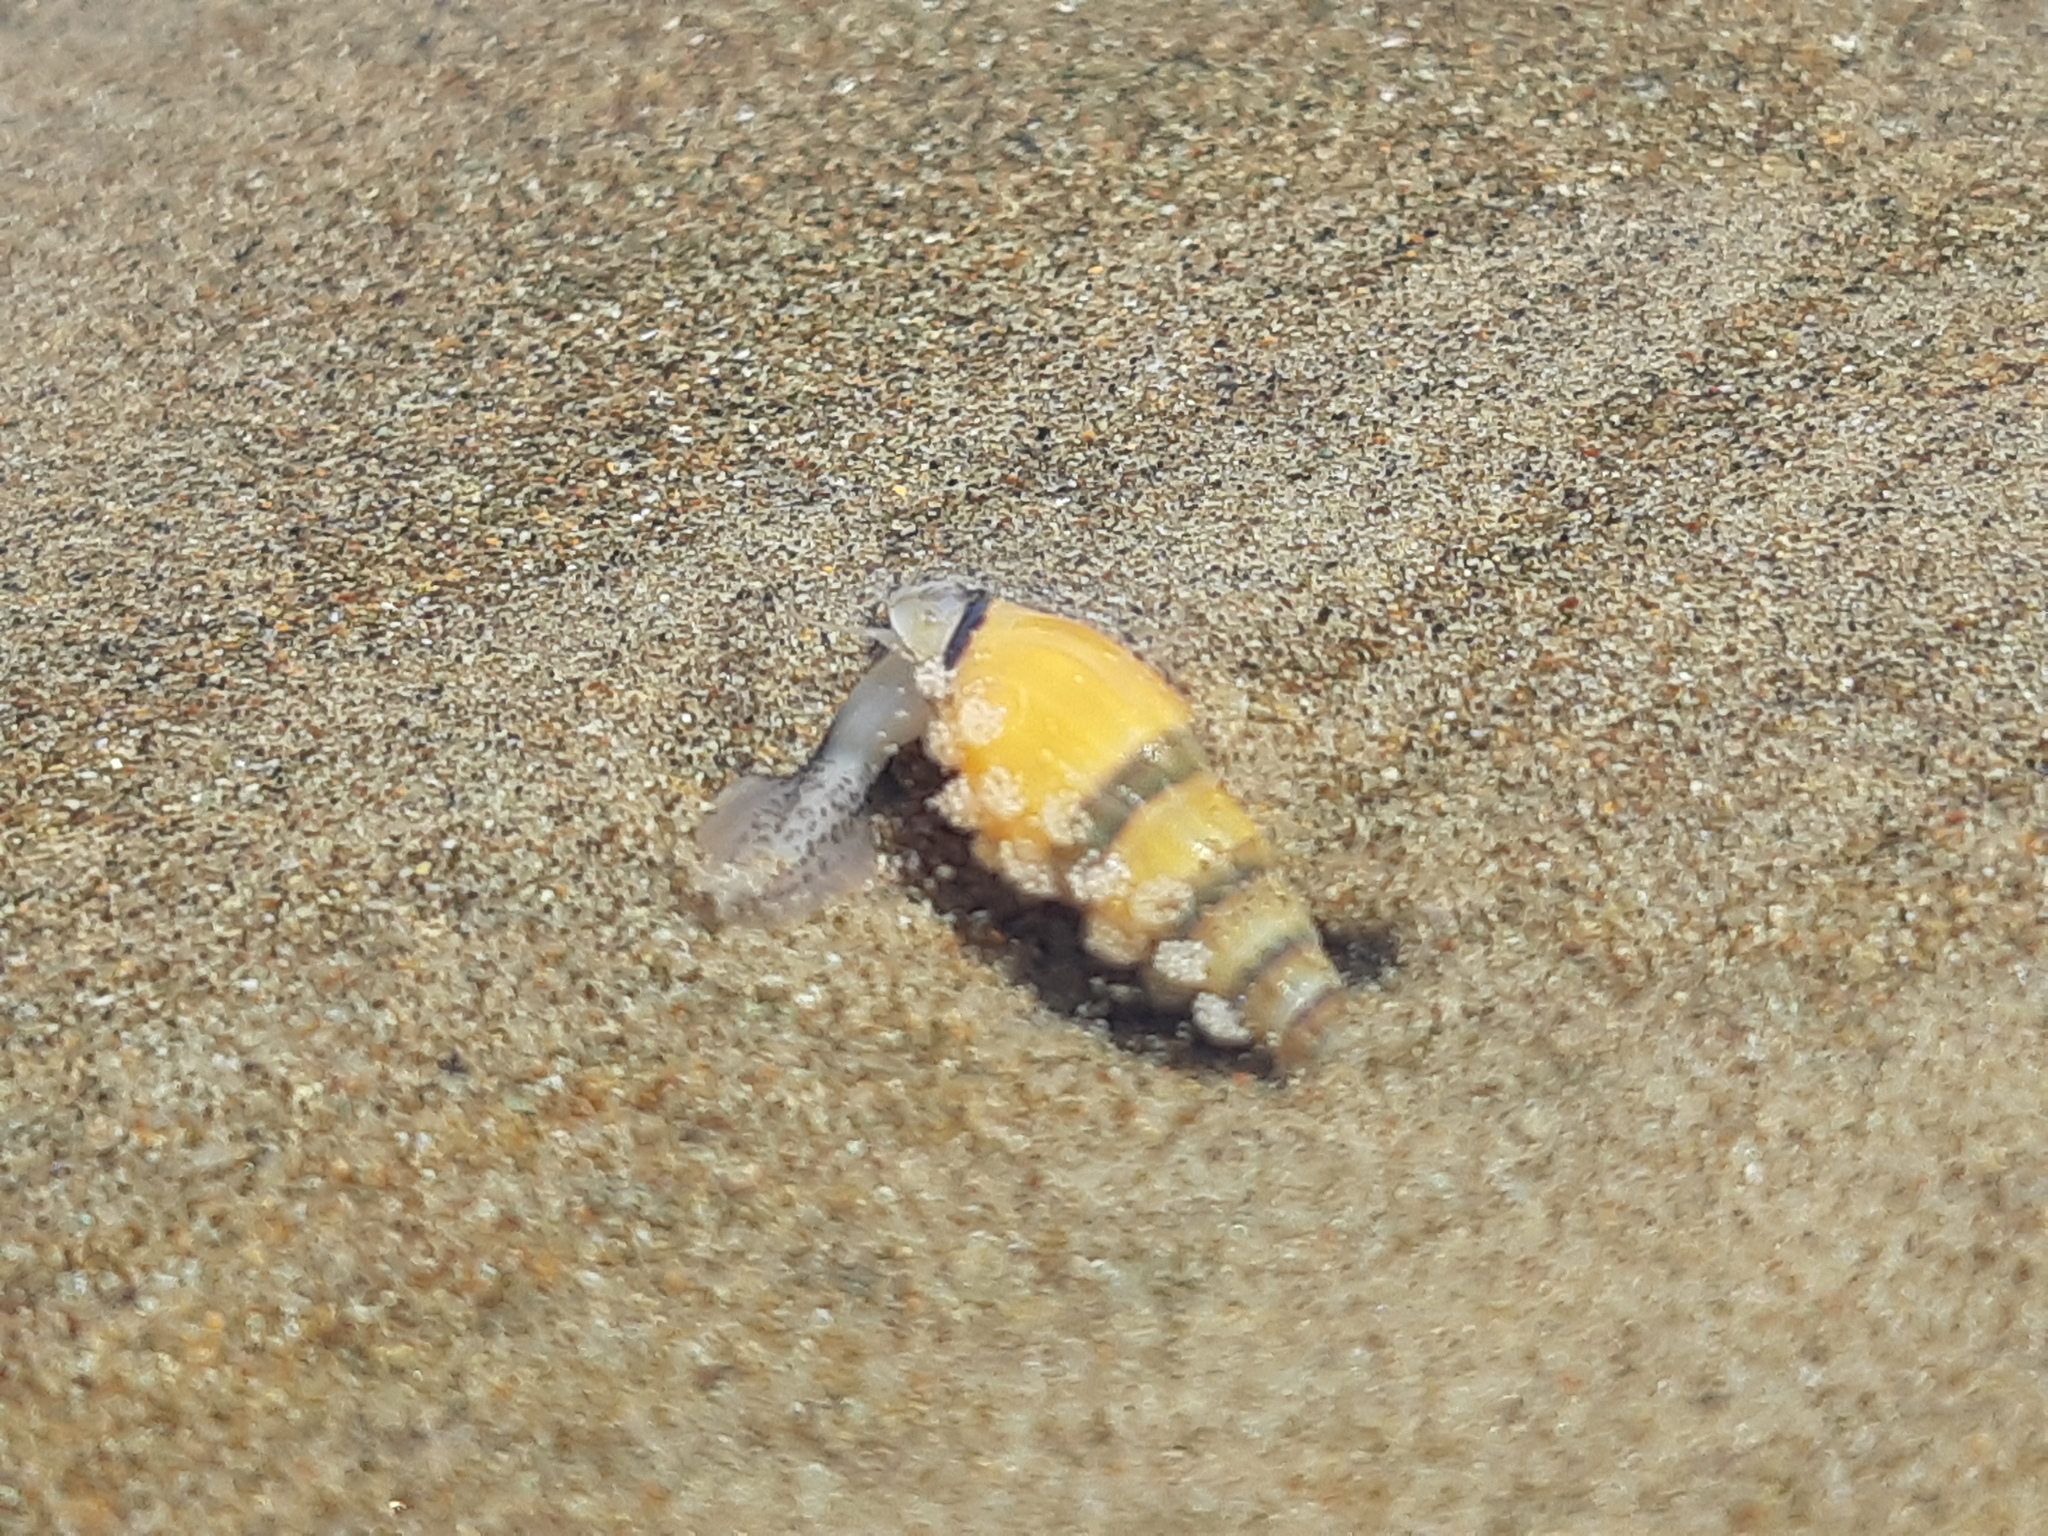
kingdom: Animalia
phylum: Mollusca
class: Gastropoda
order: Neogastropoda
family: Columbellidae
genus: Mazatlania
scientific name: Mazatlania fulgurata
